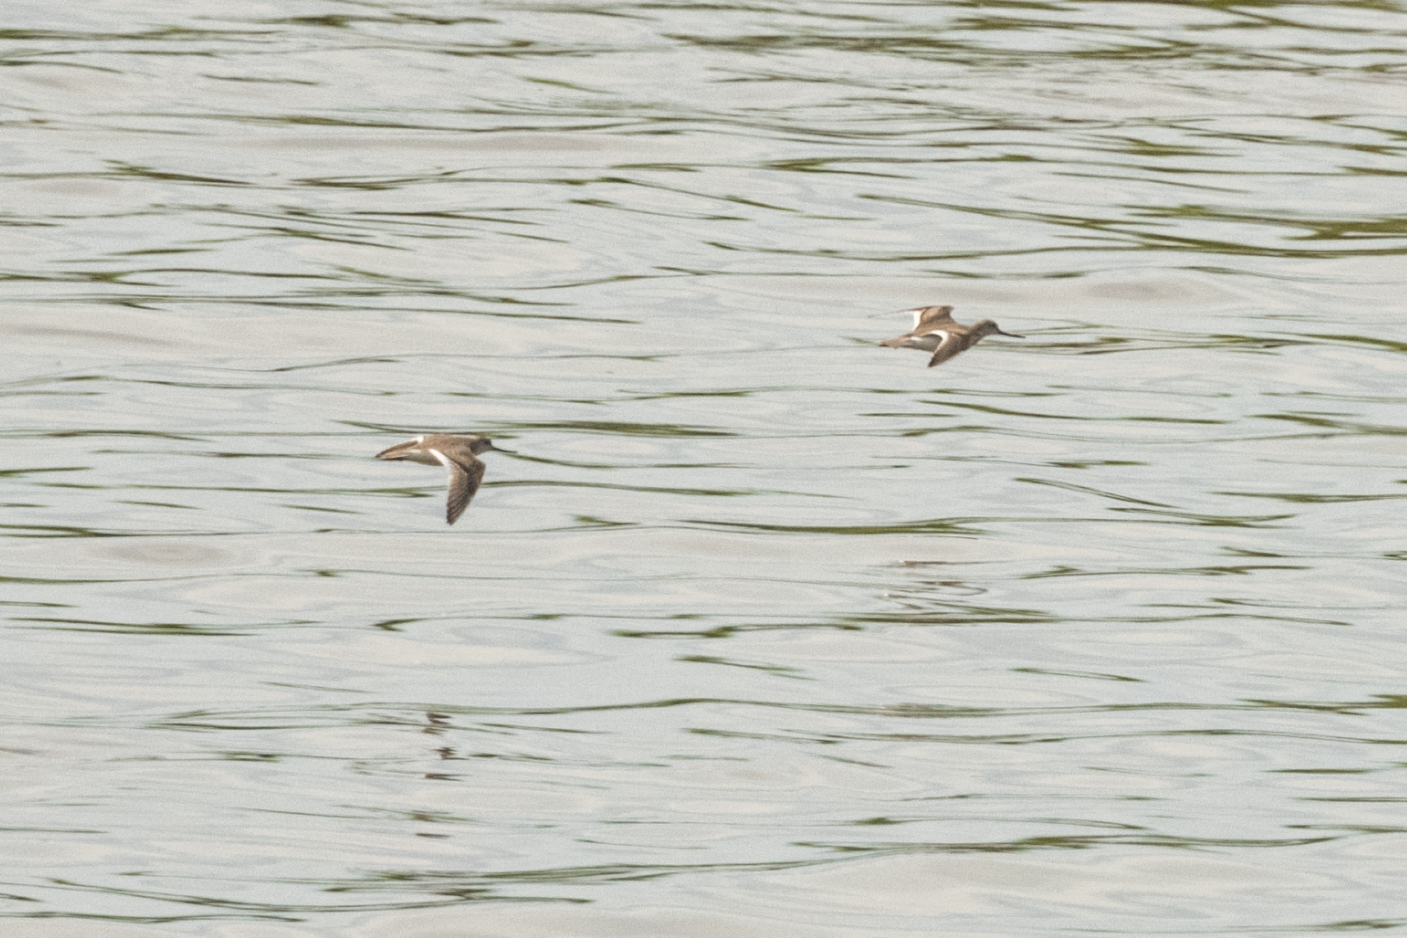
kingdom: Animalia
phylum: Chordata
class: Aves
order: Charadriiformes
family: Scolopacidae
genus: Xenus
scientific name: Xenus cinereus
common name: Terek sandpiper
